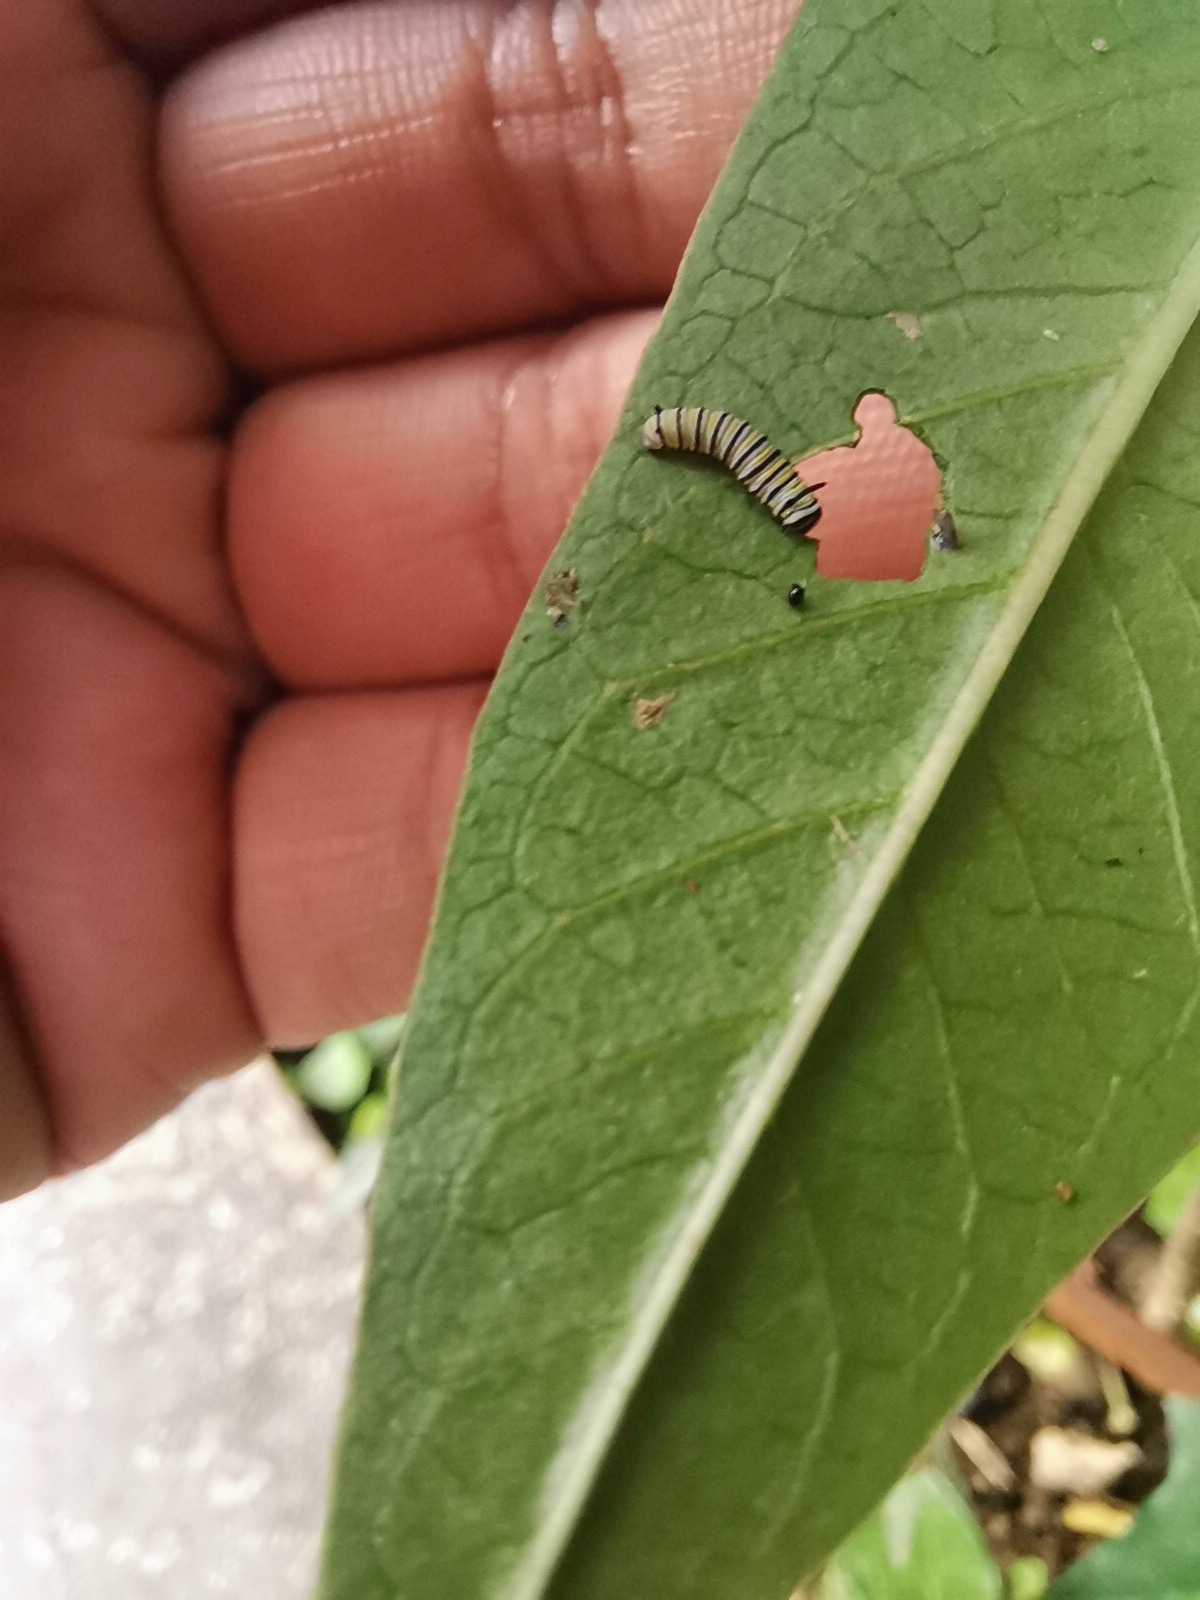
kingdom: Animalia
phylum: Arthropoda
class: Insecta
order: Lepidoptera
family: Nymphalidae
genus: Danaus
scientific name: Danaus plexippus
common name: Monarch
